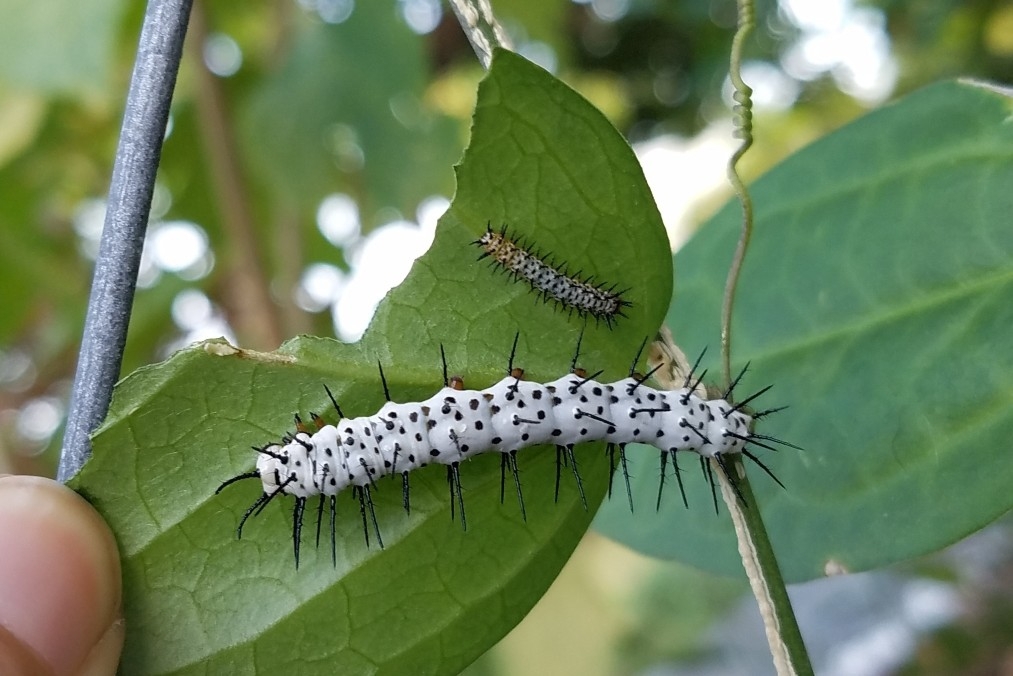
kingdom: Animalia
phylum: Arthropoda
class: Insecta
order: Lepidoptera
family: Nymphalidae
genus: Heliconius
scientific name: Heliconius charithonia
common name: Zebra long wing
